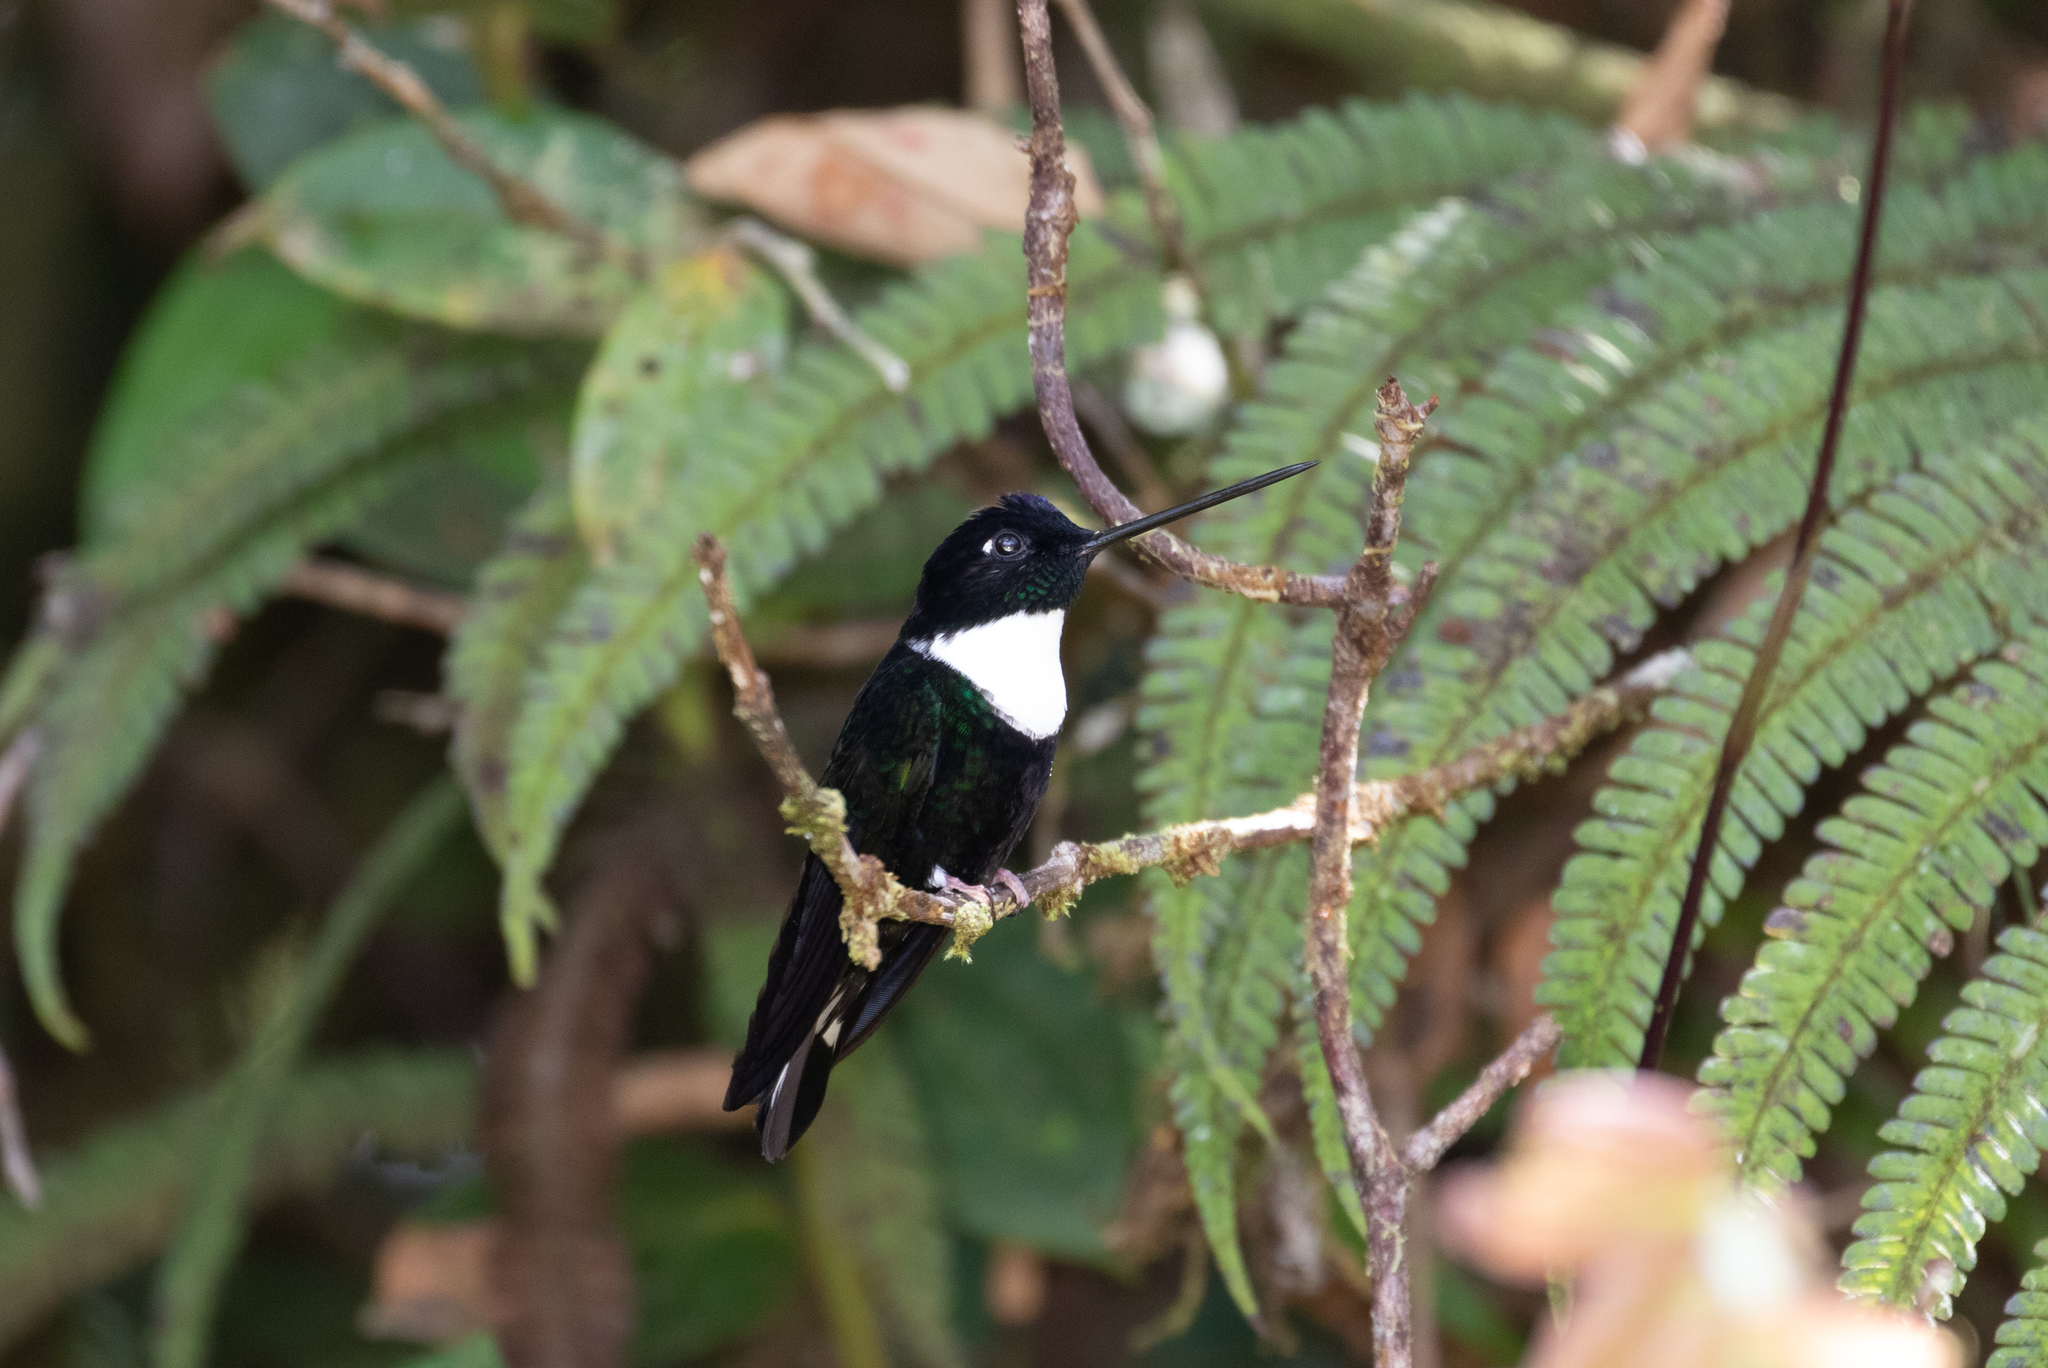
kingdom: Animalia
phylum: Chordata
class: Aves
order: Apodiformes
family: Trochilidae
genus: Coeligena
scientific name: Coeligena torquata
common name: Collared inca
